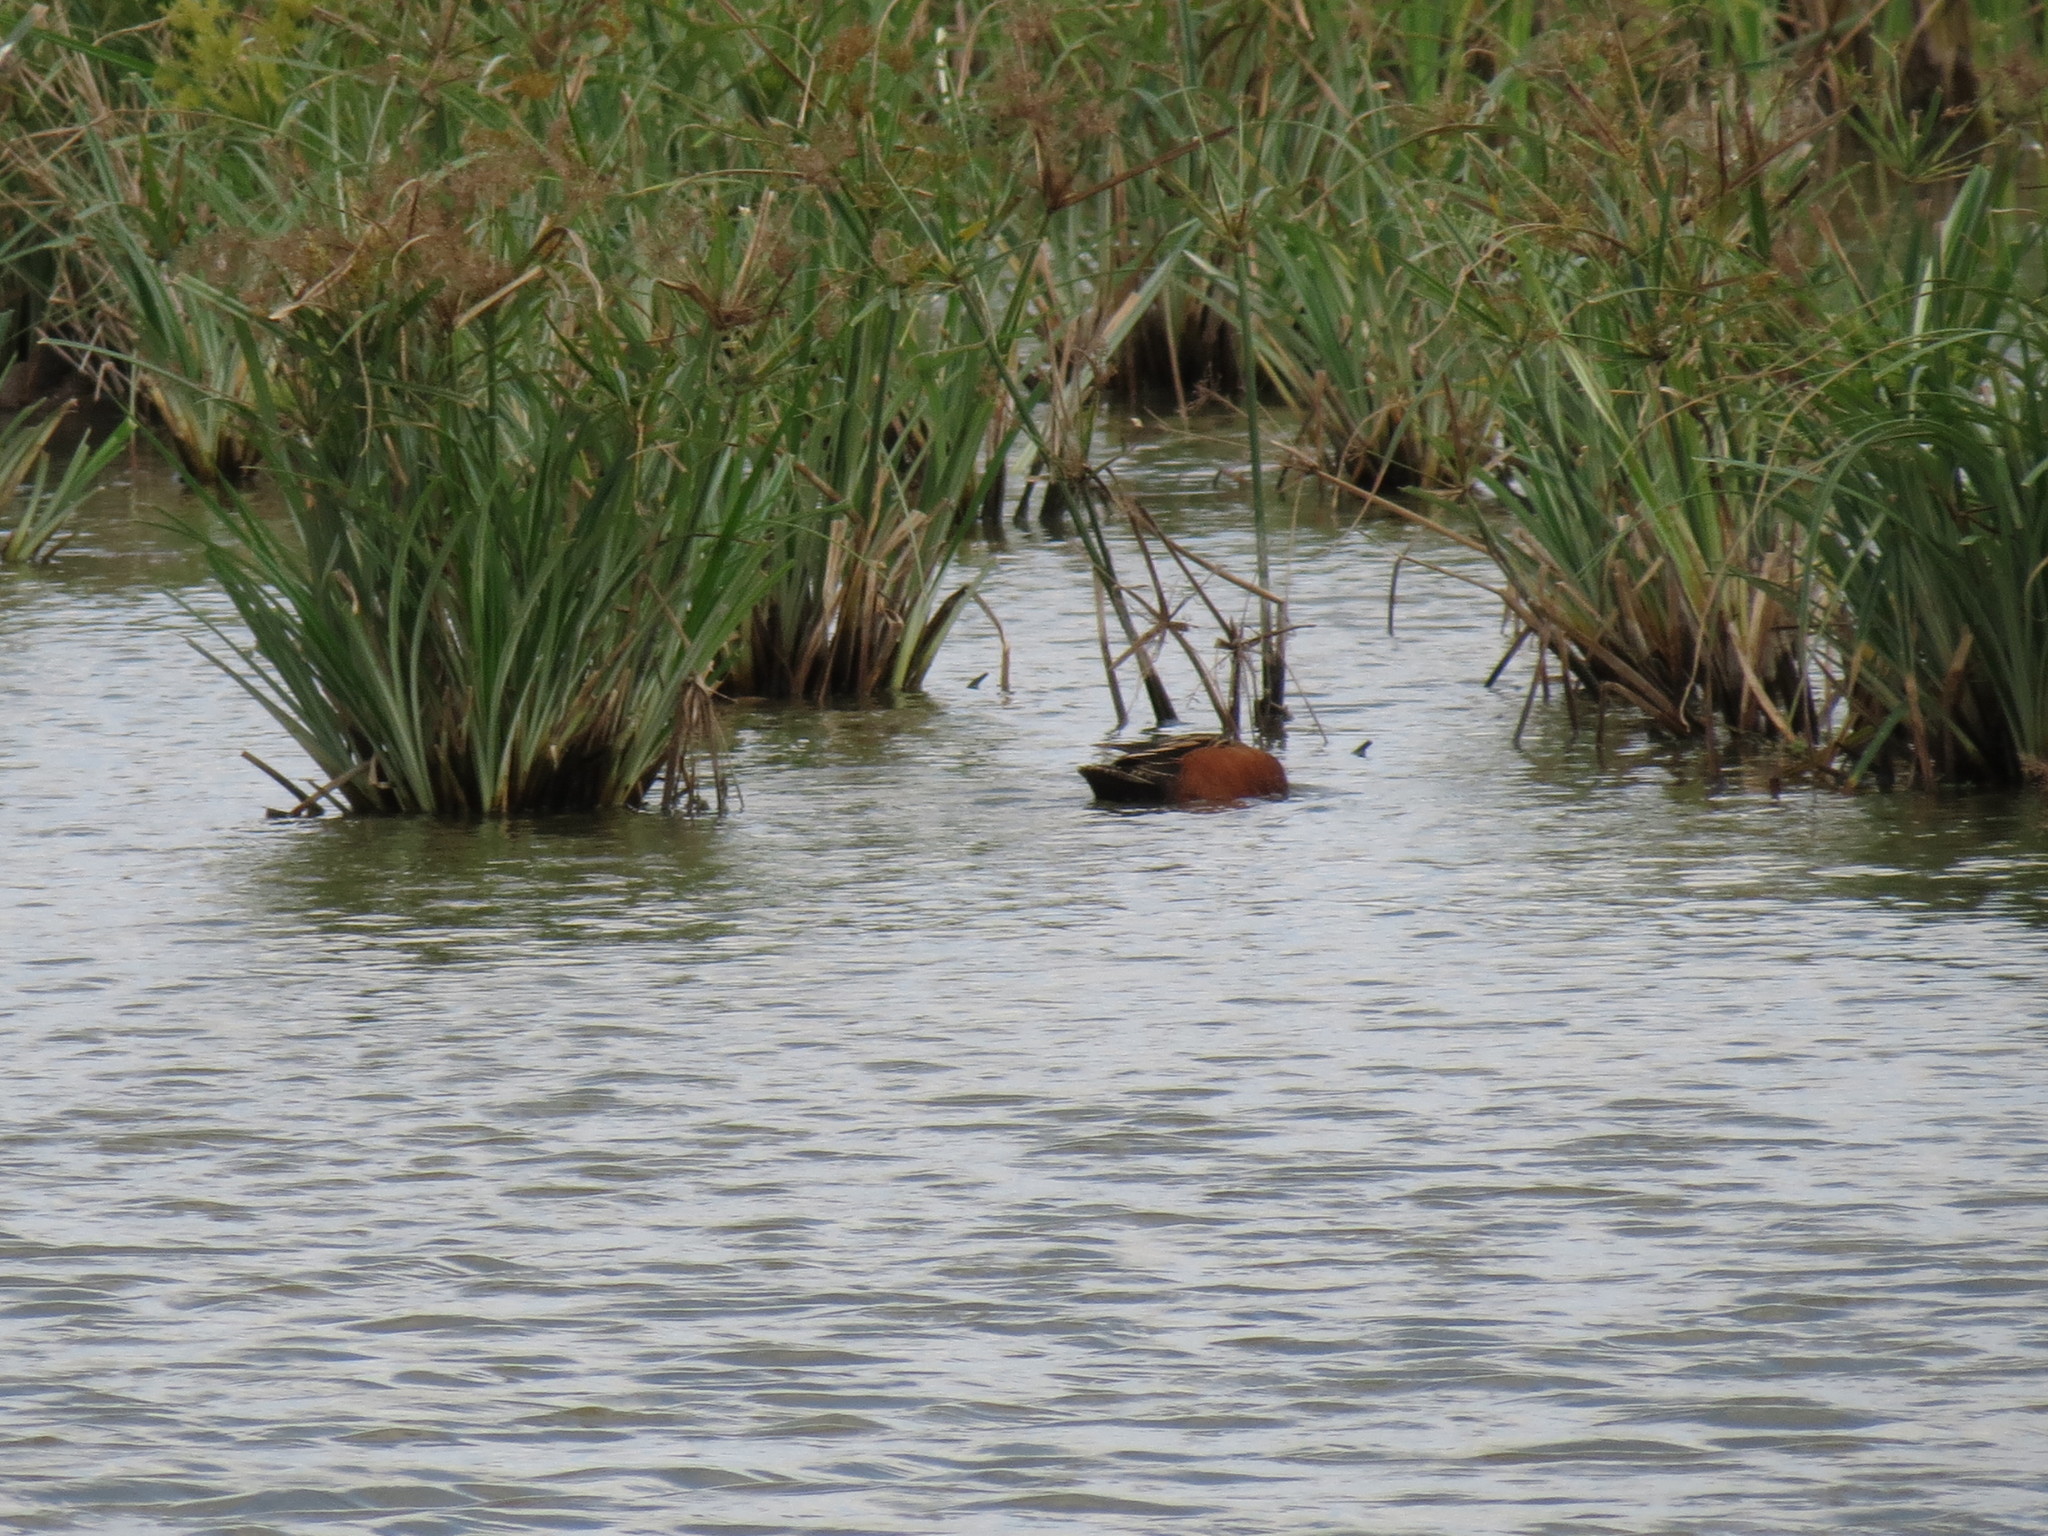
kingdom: Animalia
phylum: Chordata
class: Aves
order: Anseriformes
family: Anatidae
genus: Spatula
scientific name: Spatula cyanoptera
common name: Cinnamon teal
